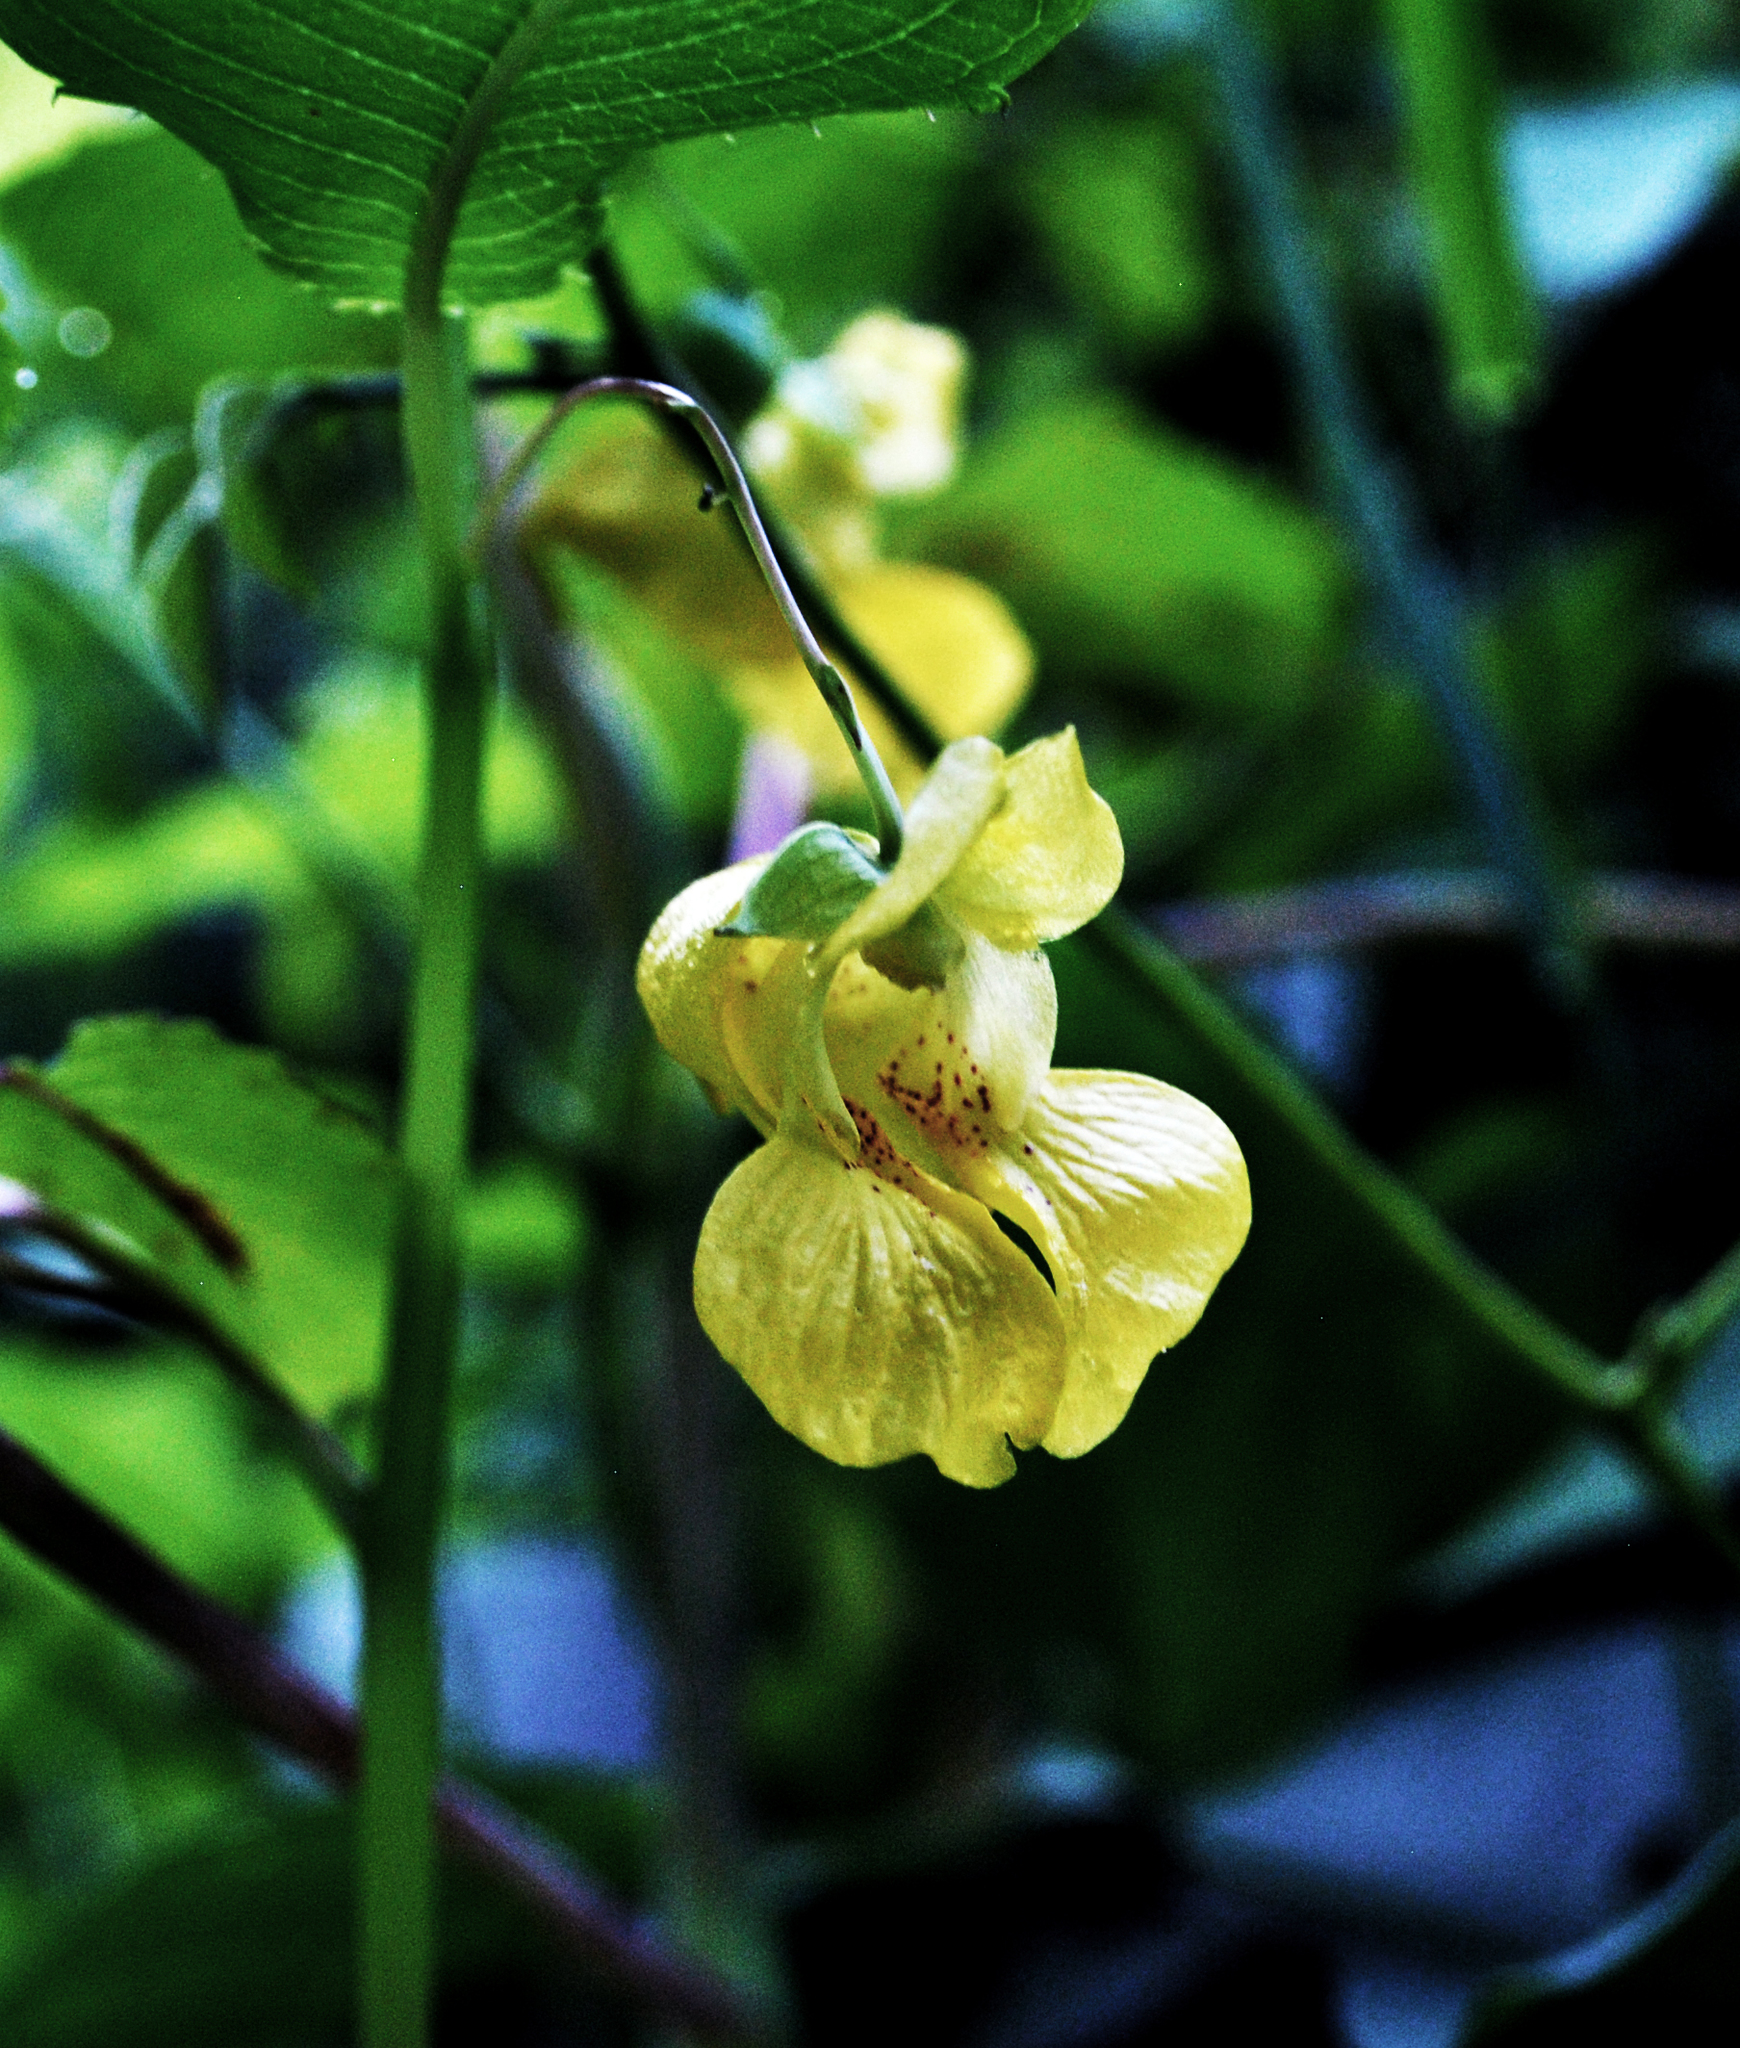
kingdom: Plantae
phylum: Tracheophyta
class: Magnoliopsida
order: Ericales
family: Balsaminaceae
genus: Impatiens
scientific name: Impatiens pallida
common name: Pale snapweed
